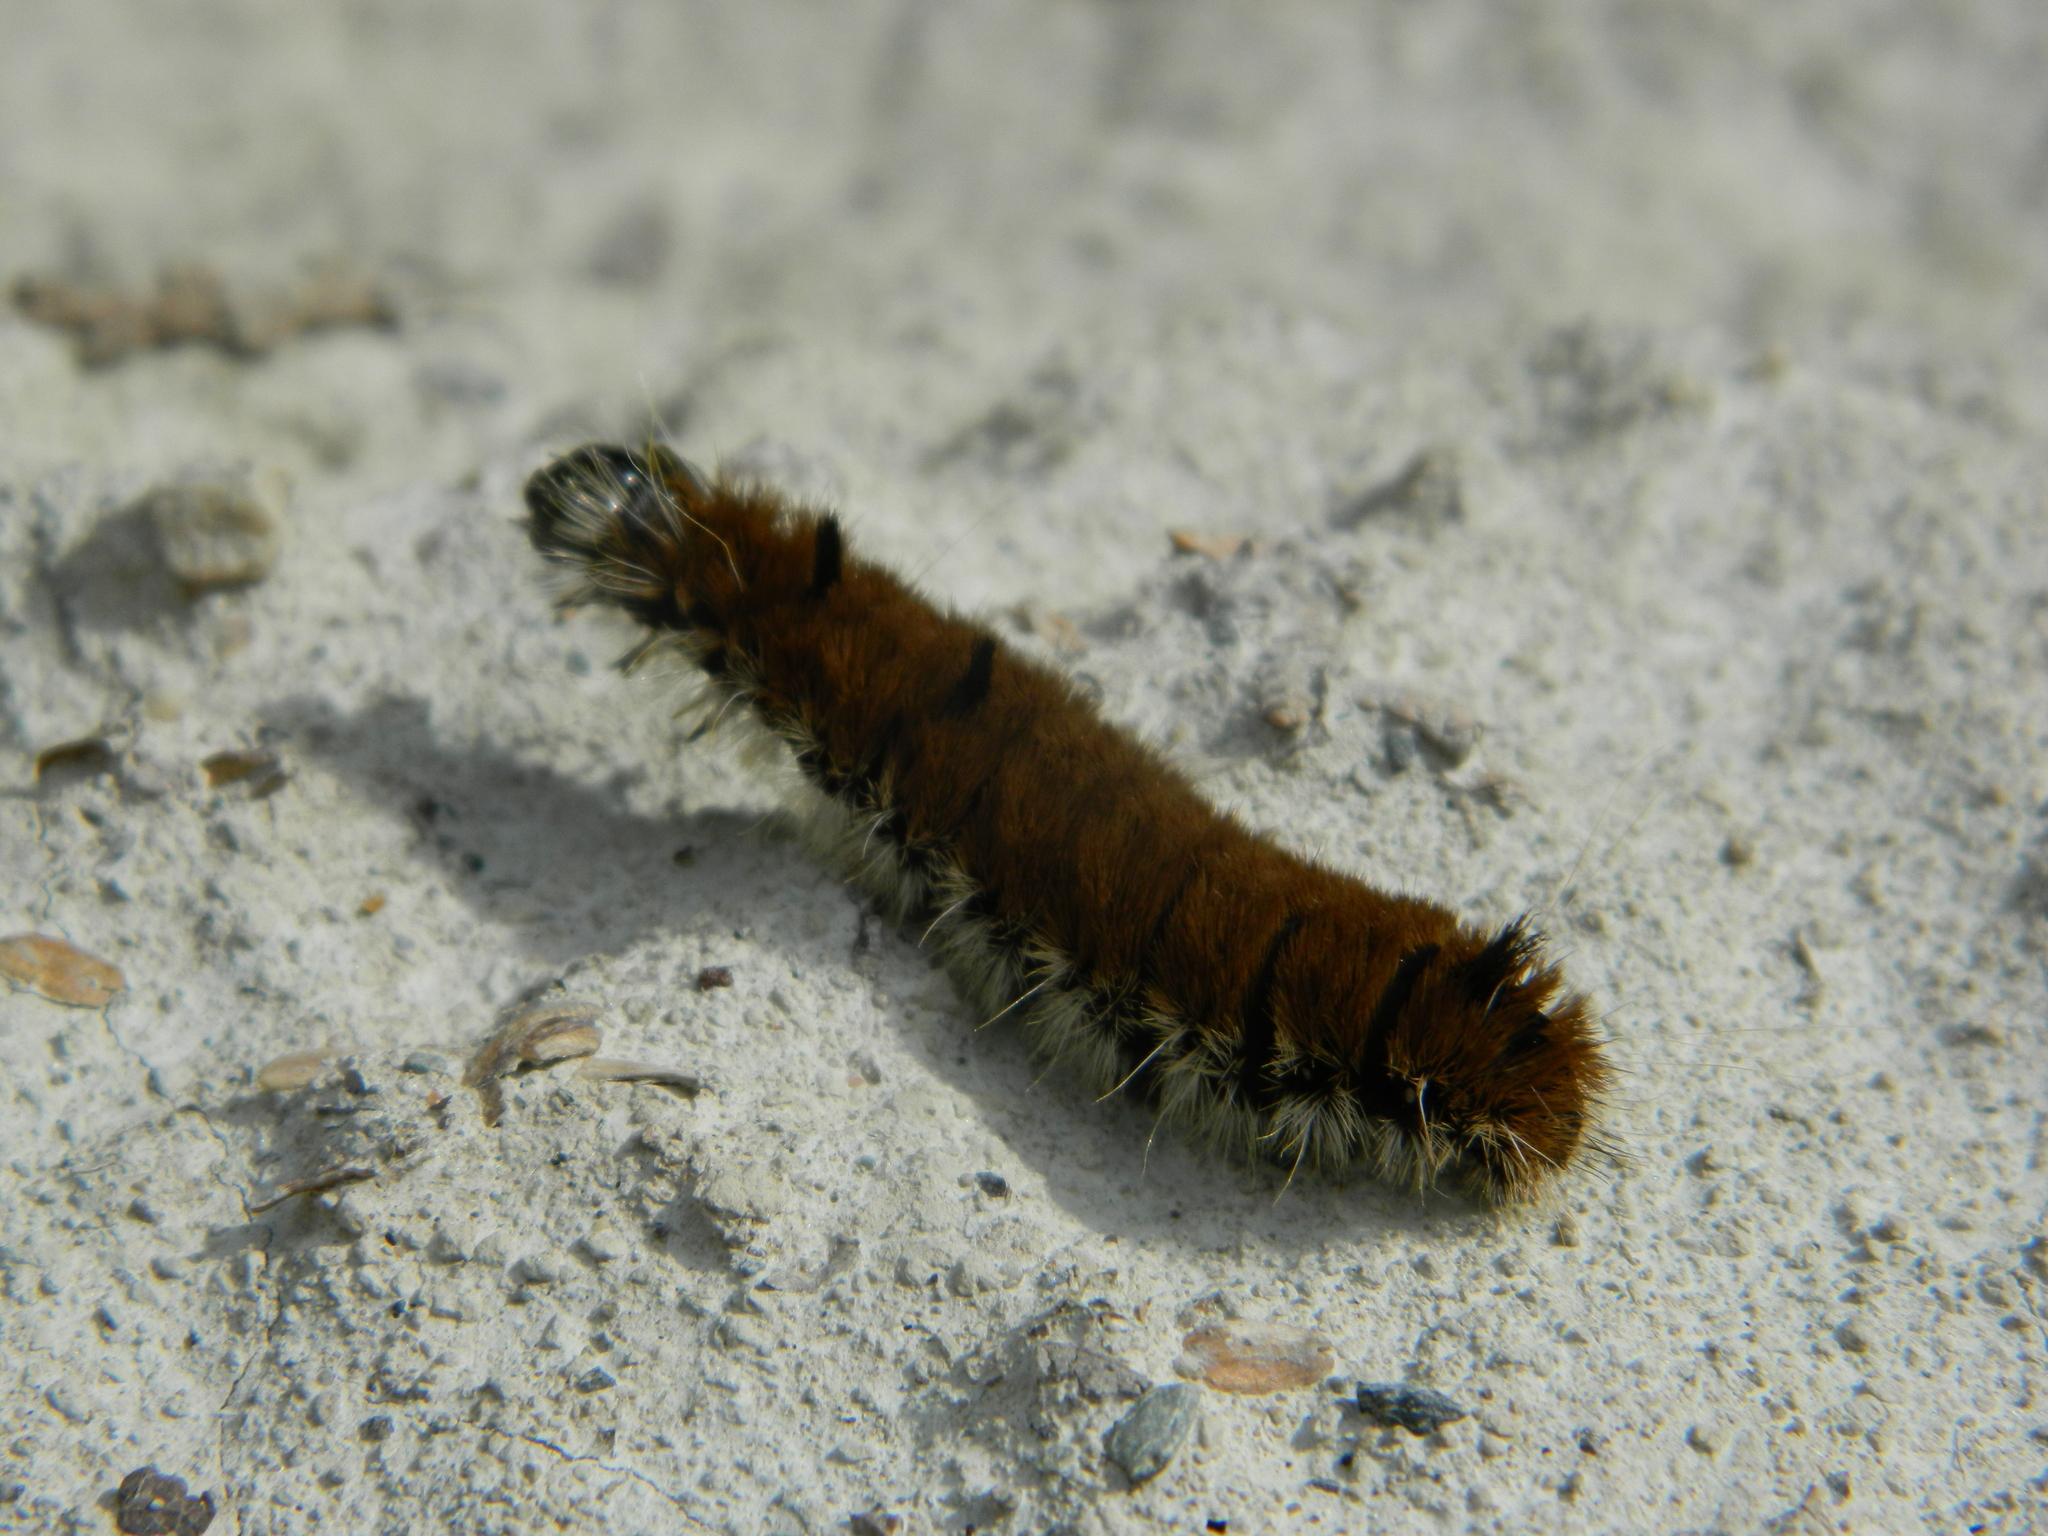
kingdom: Animalia
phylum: Arthropoda
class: Insecta
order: Lepidoptera
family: Noctuidae
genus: Acronicta
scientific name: Acronicta insita
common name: Large gray dagger
